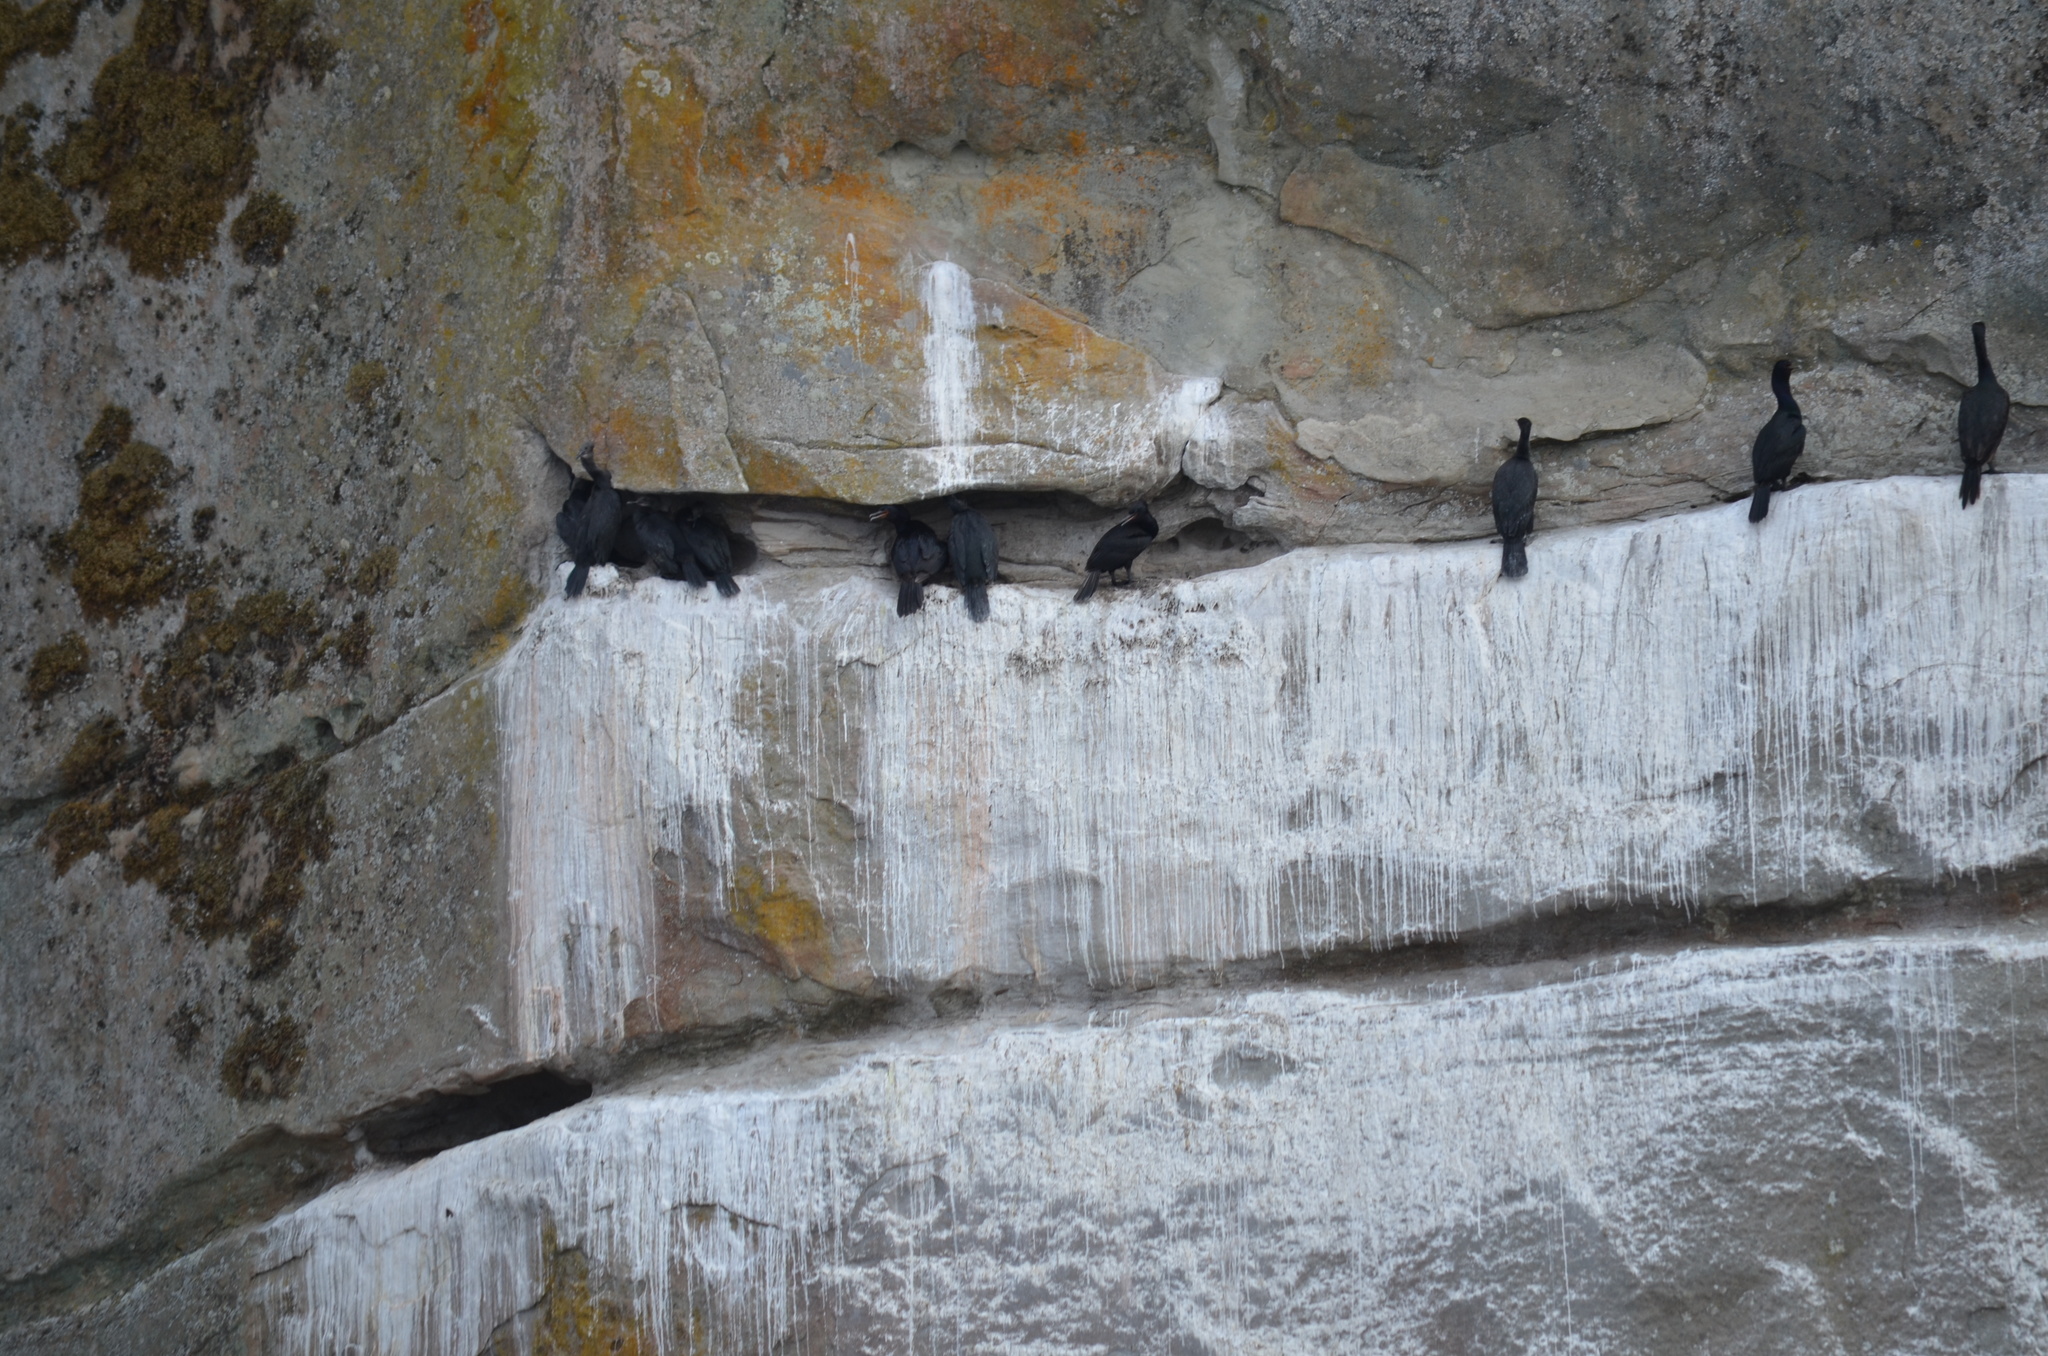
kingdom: Animalia
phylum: Chordata
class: Aves
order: Suliformes
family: Phalacrocoracidae
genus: Phalacrocorax
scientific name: Phalacrocorax pelagicus
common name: Pelagic cormorant
